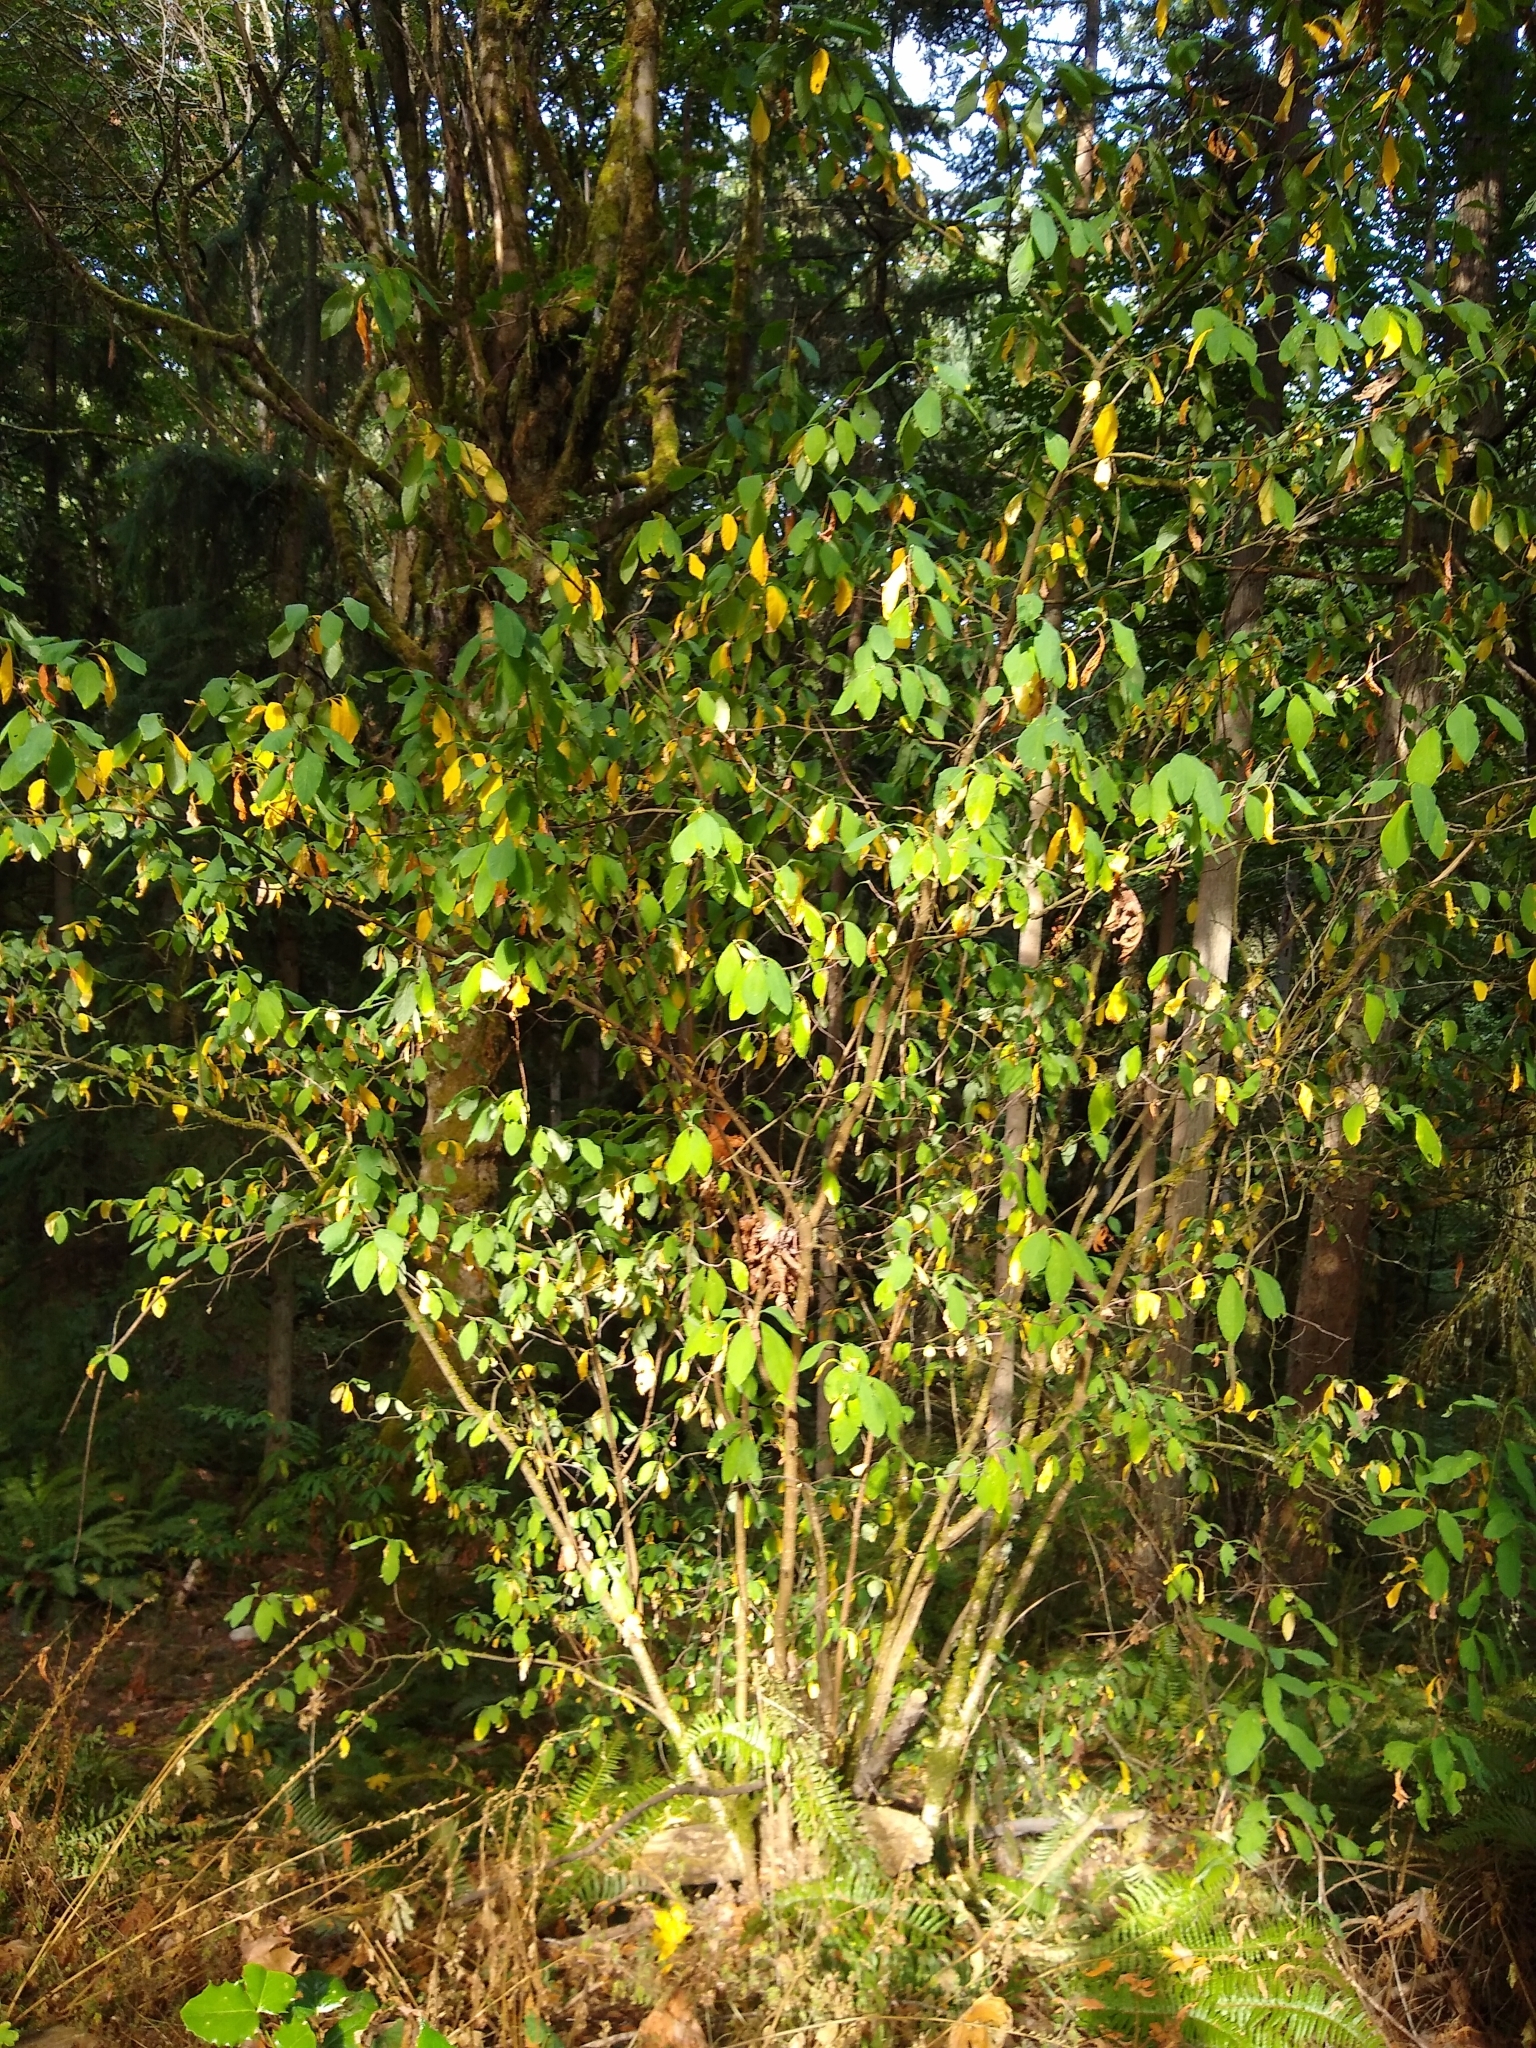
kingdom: Plantae
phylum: Tracheophyta
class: Magnoliopsida
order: Rosales
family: Rosaceae
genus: Oemleria
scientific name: Oemleria cerasiformis
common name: Osoberry
